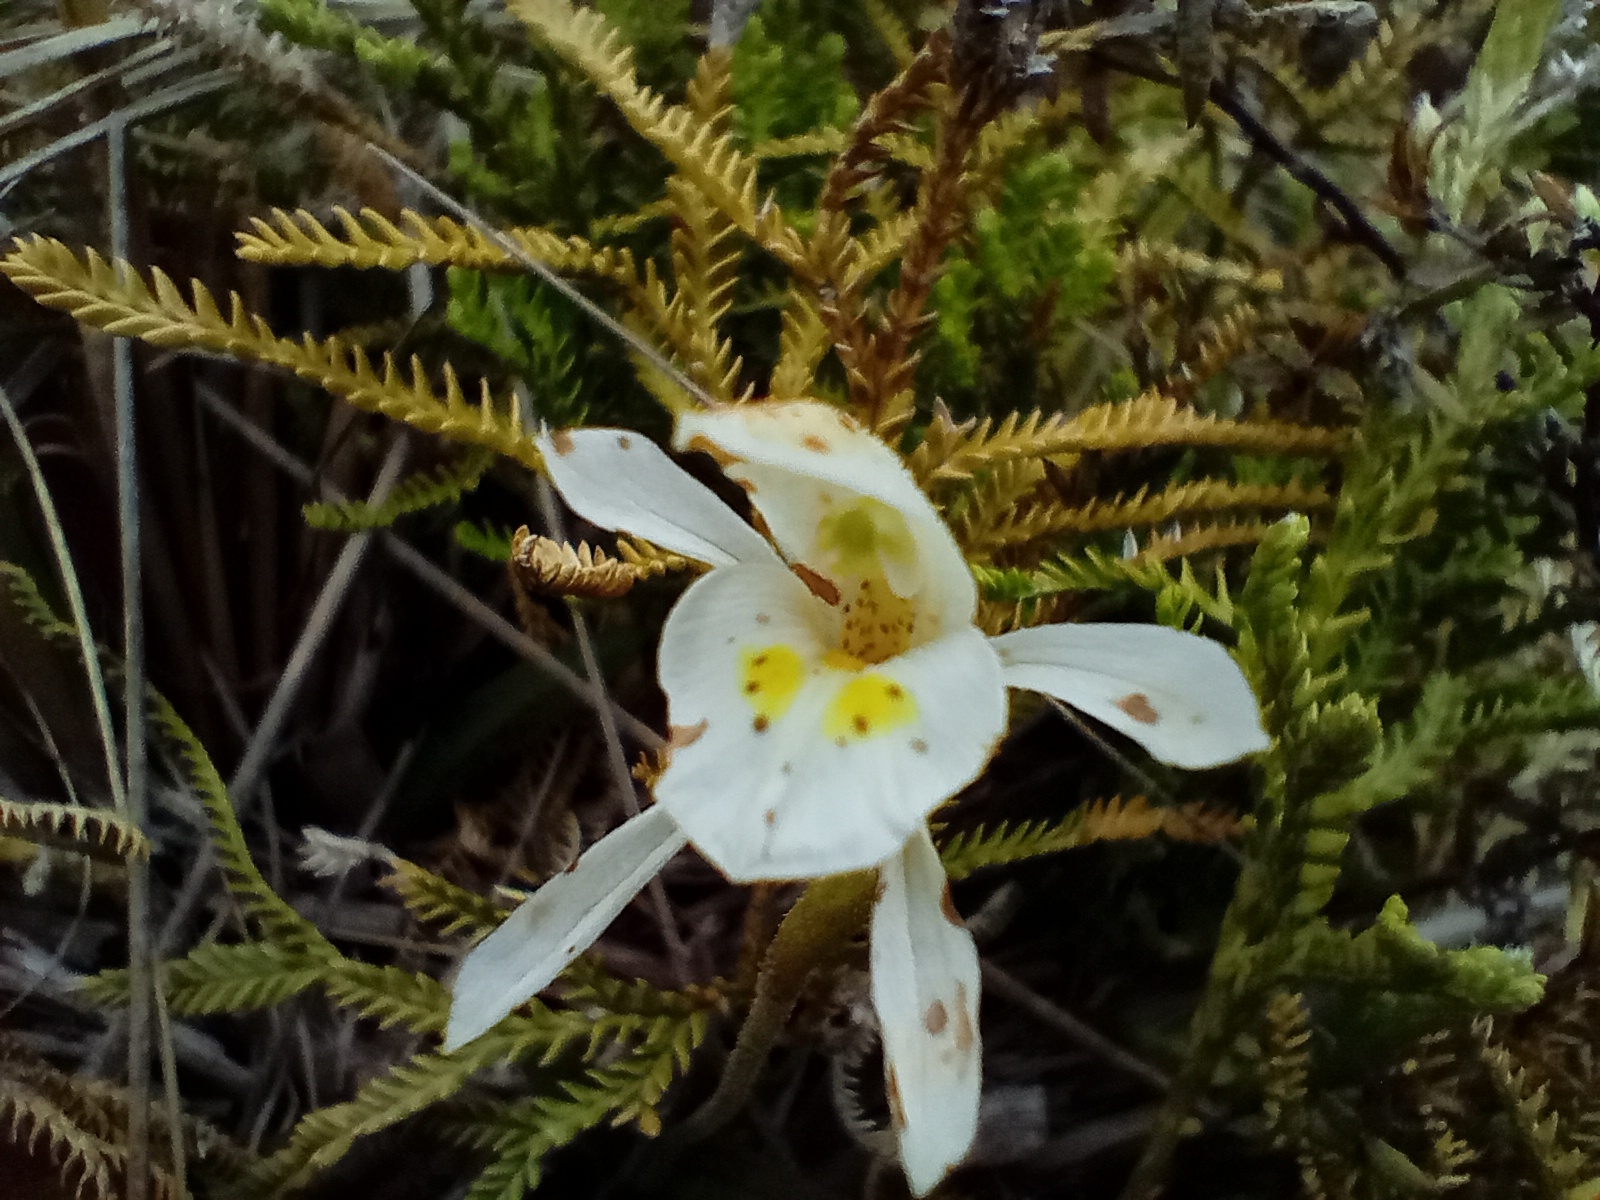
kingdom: Plantae
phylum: Tracheophyta
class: Liliopsida
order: Asparagales
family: Orchidaceae
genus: Aporostylis
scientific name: Aporostylis bifolia
